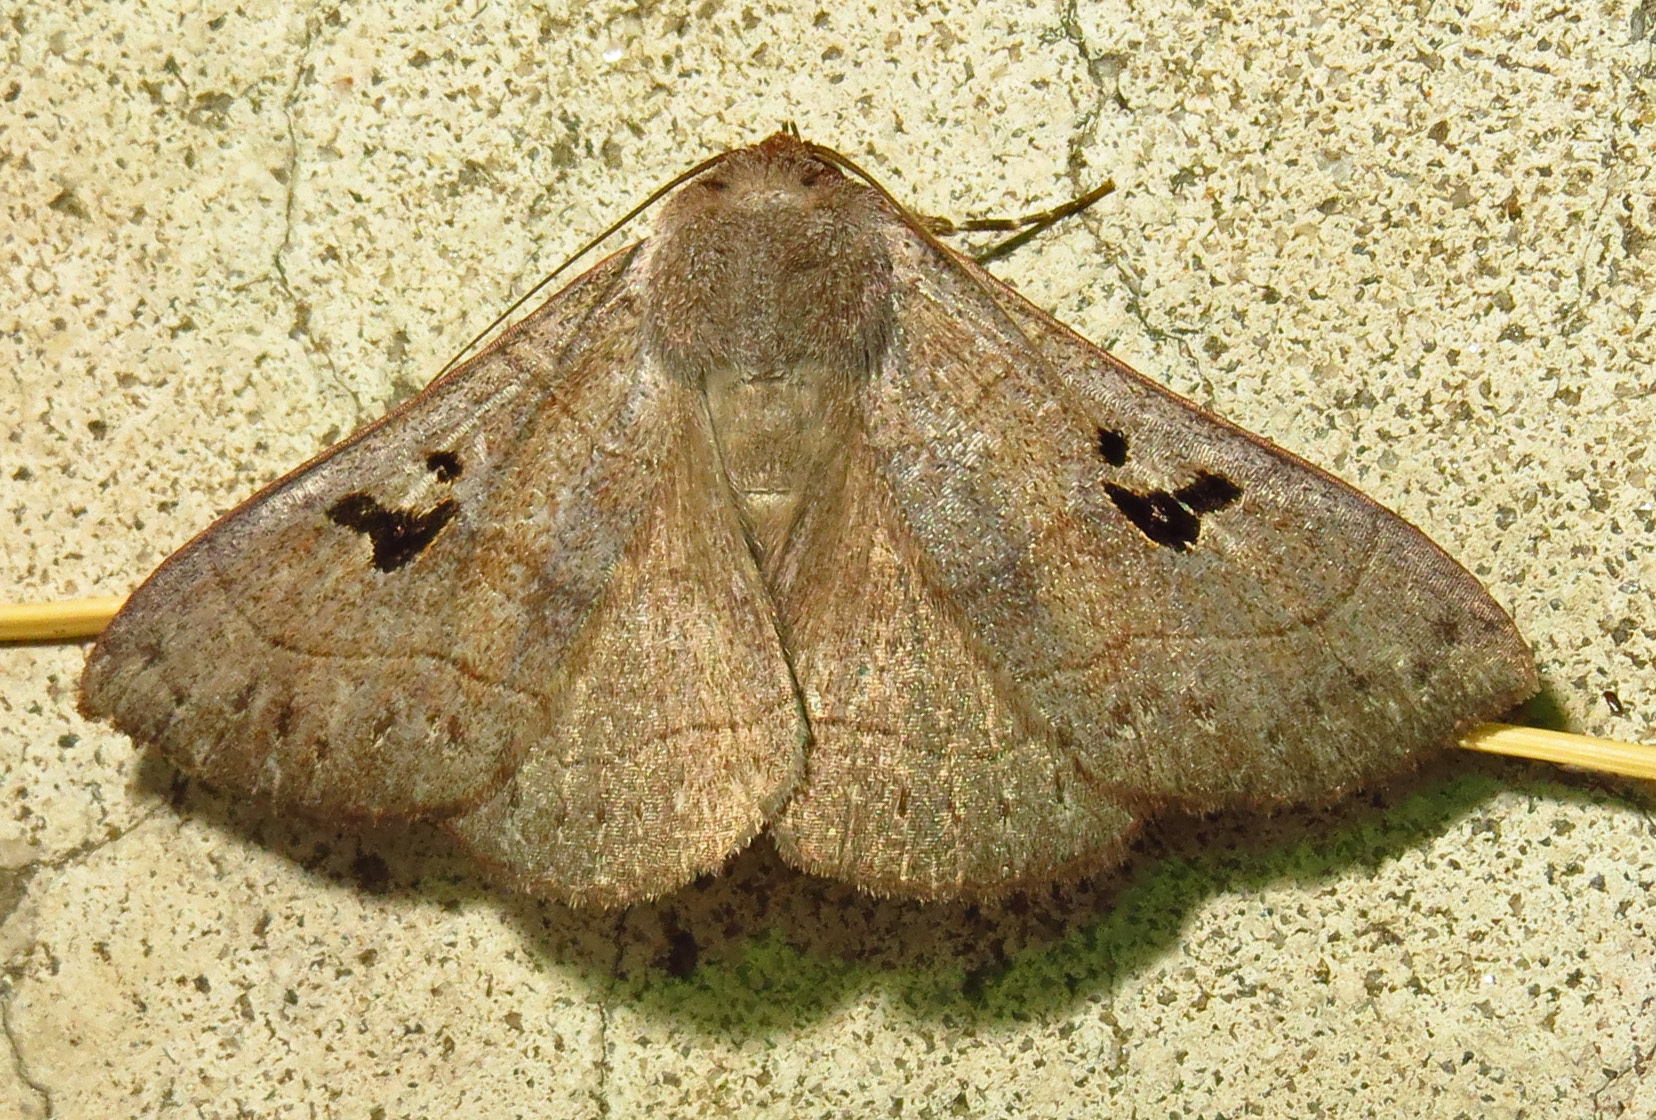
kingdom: Animalia
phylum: Arthropoda
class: Insecta
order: Lepidoptera
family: Erebidae
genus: Panopoda
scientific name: Panopoda carneicosta
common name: Brown panopoda moth
